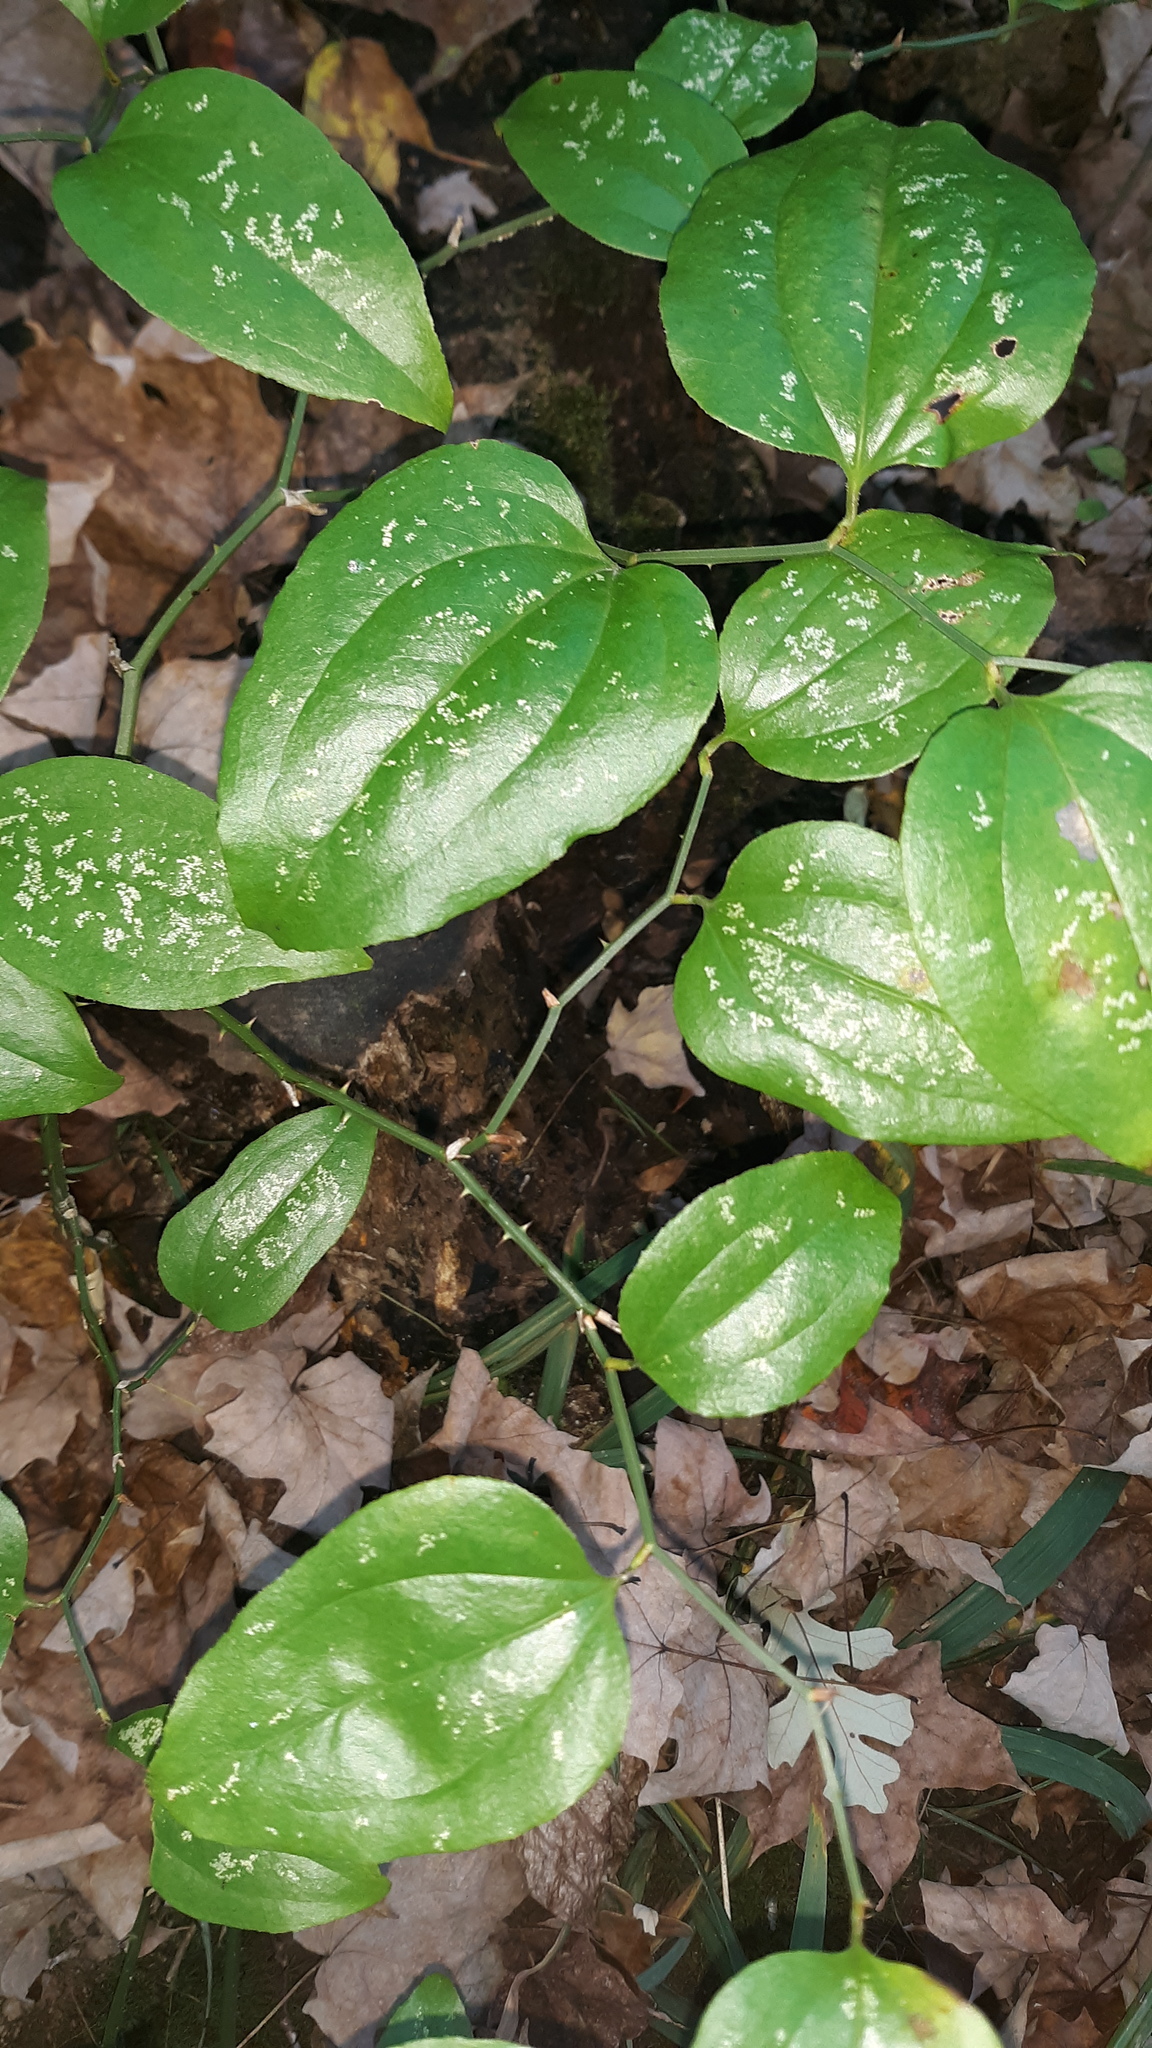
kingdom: Plantae
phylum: Tracheophyta
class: Liliopsida
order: Liliales
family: Smilacaceae
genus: Smilax
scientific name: Smilax rotundifolia
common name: Bullbriar
